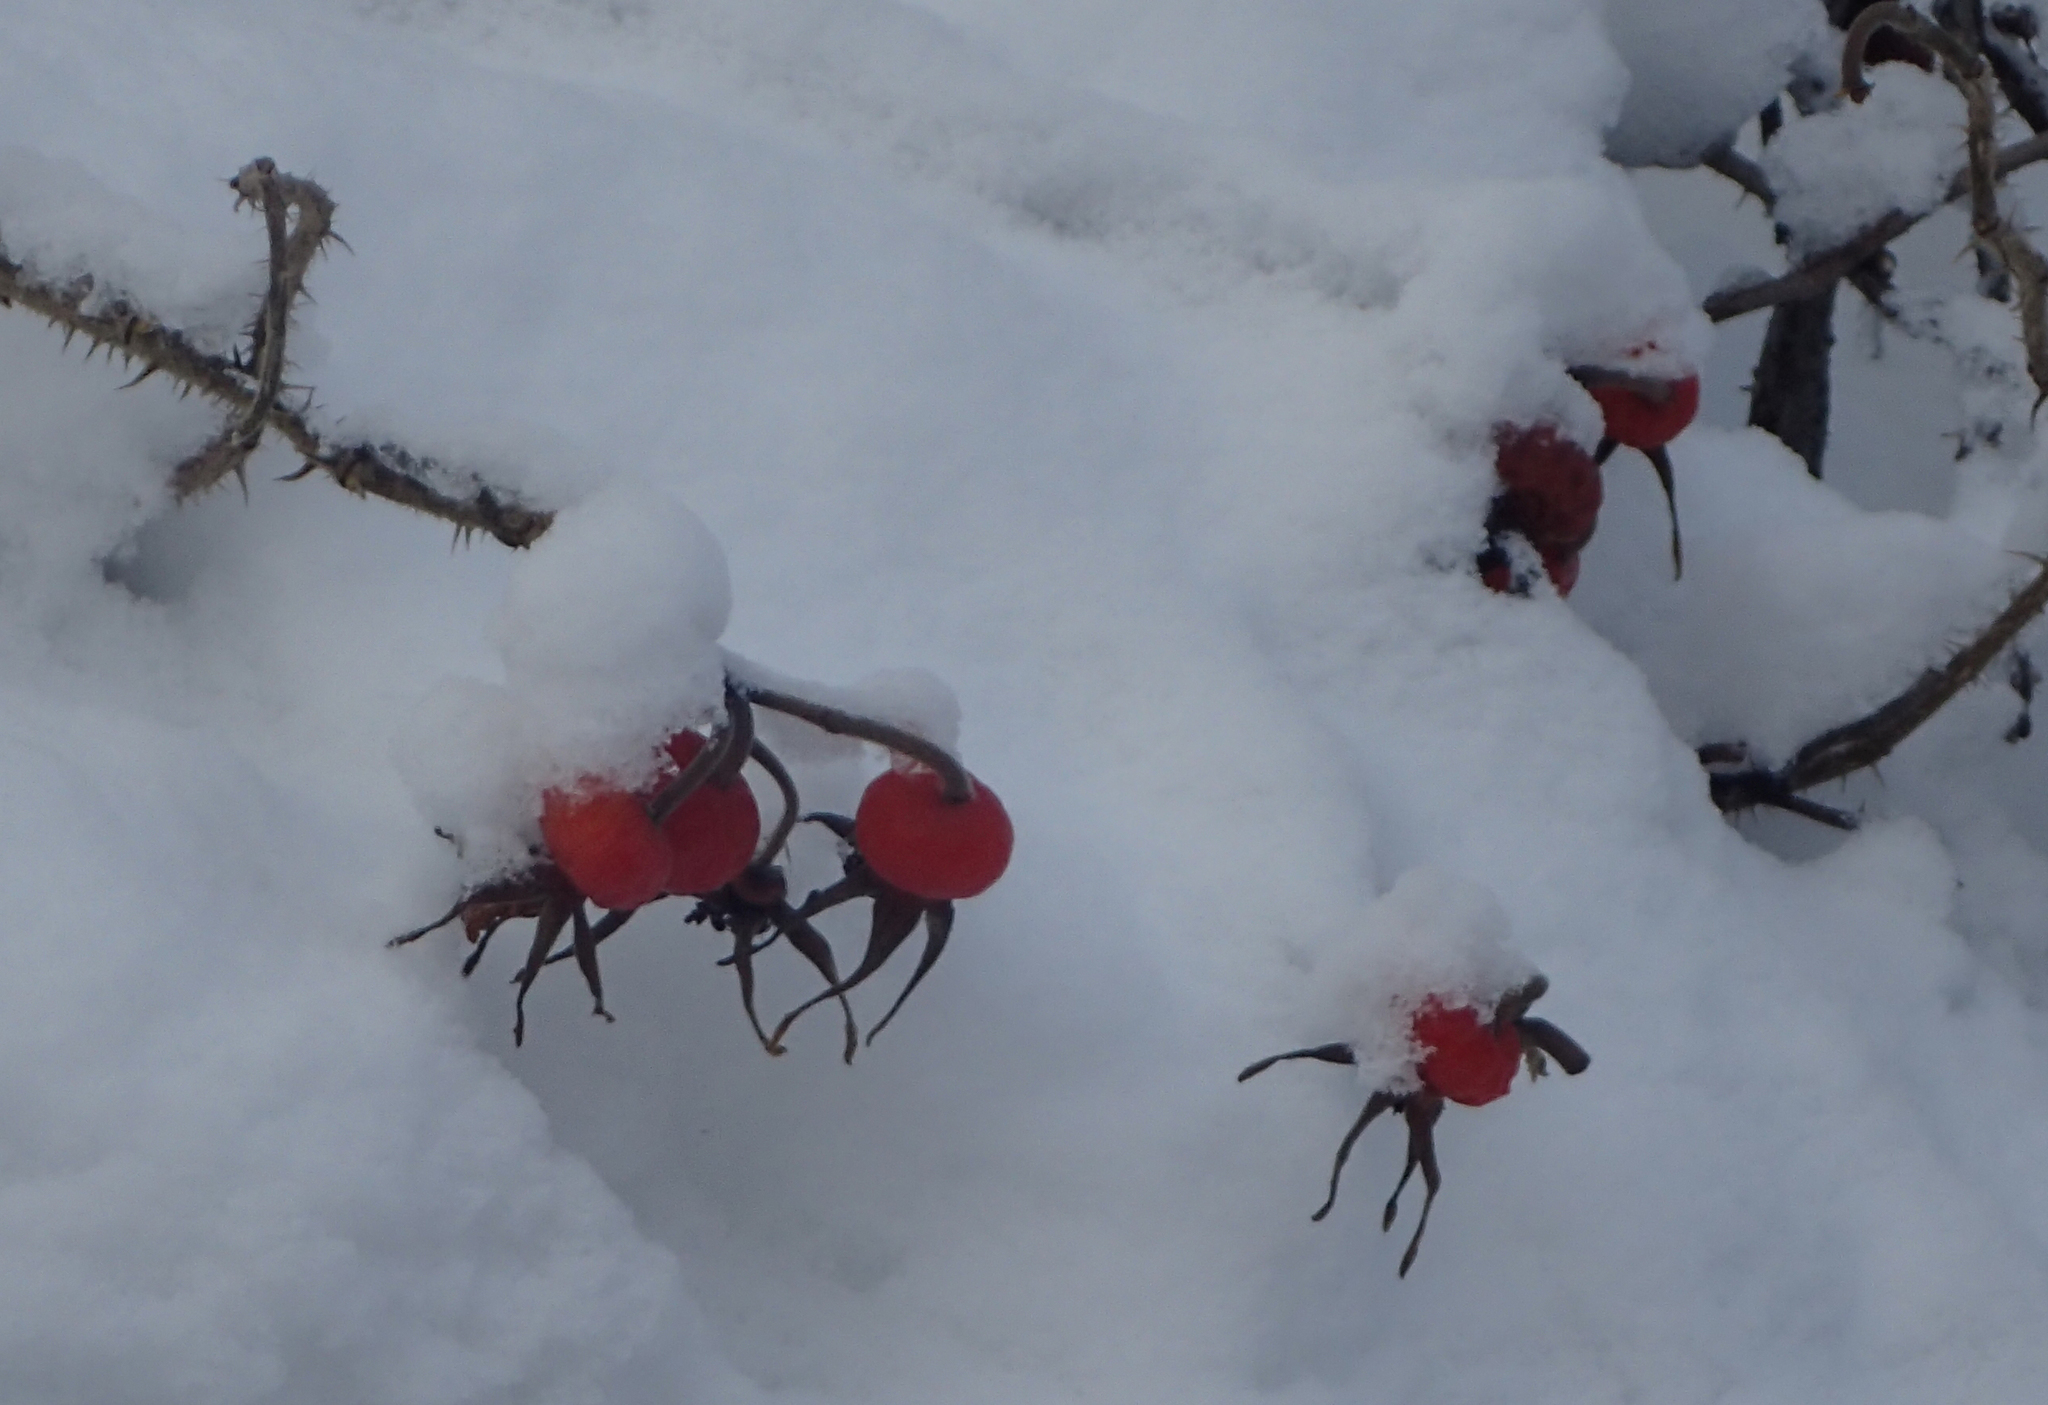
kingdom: Plantae
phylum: Tracheophyta
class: Magnoliopsida
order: Rosales
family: Rosaceae
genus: Rosa
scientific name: Rosa acicularis
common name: Prickly rose
